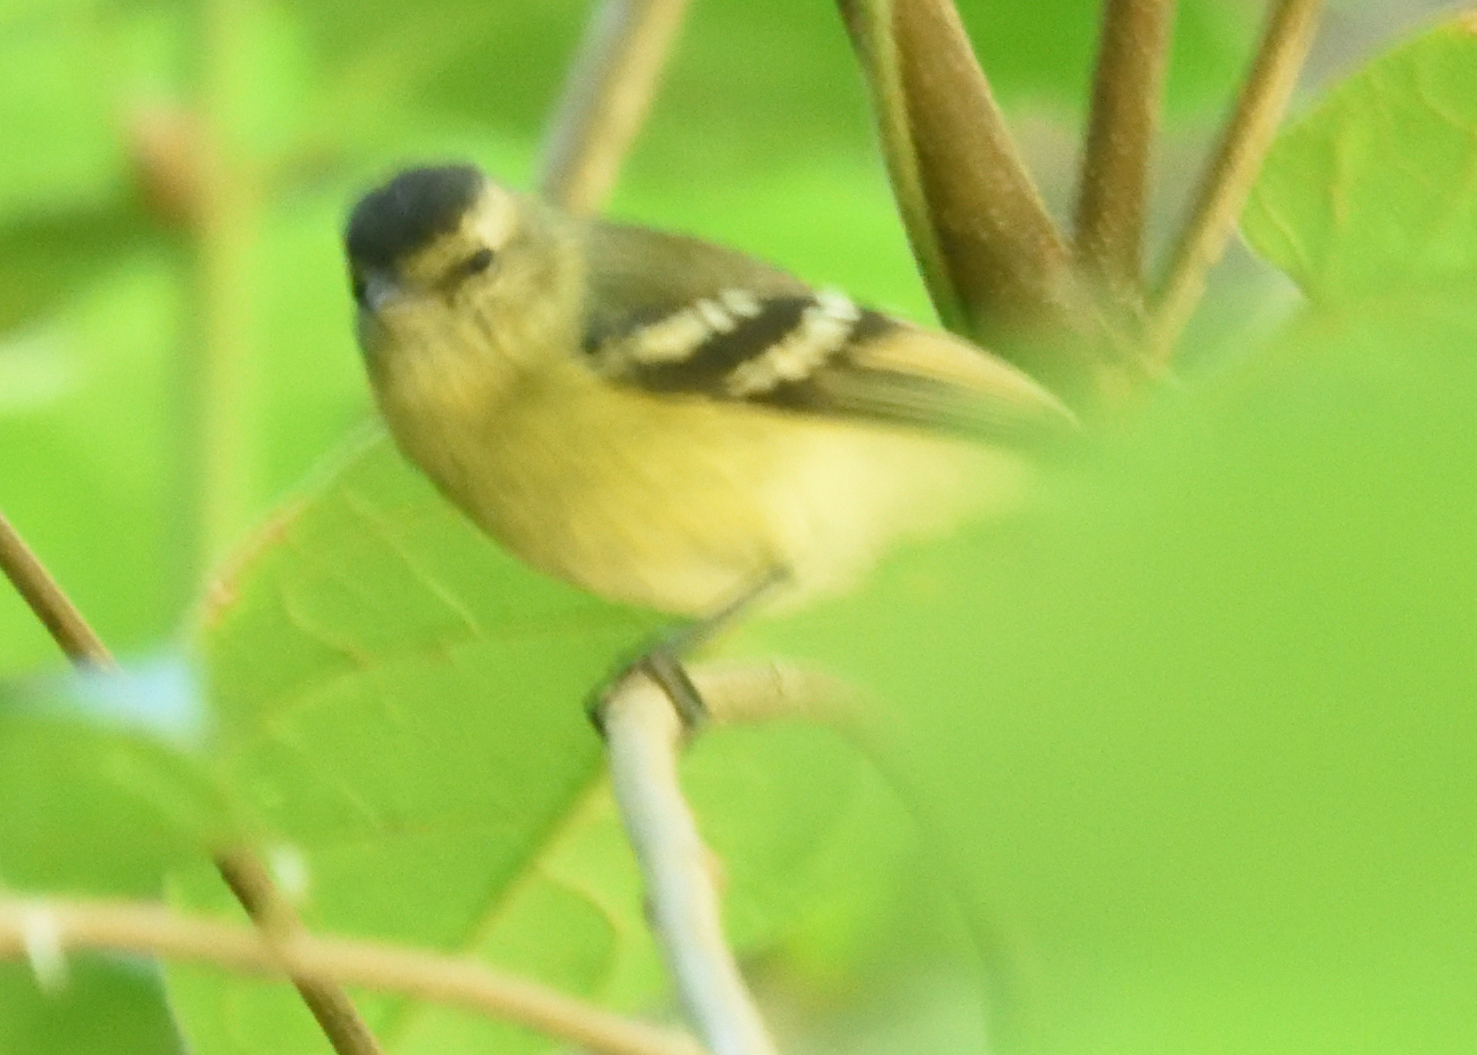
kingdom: Animalia
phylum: Chordata
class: Aves
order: Passeriformes
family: Tyrannidae
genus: Phyllomyias
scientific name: Phyllomyias nigrocapillus
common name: Black-capped tyrannulet
